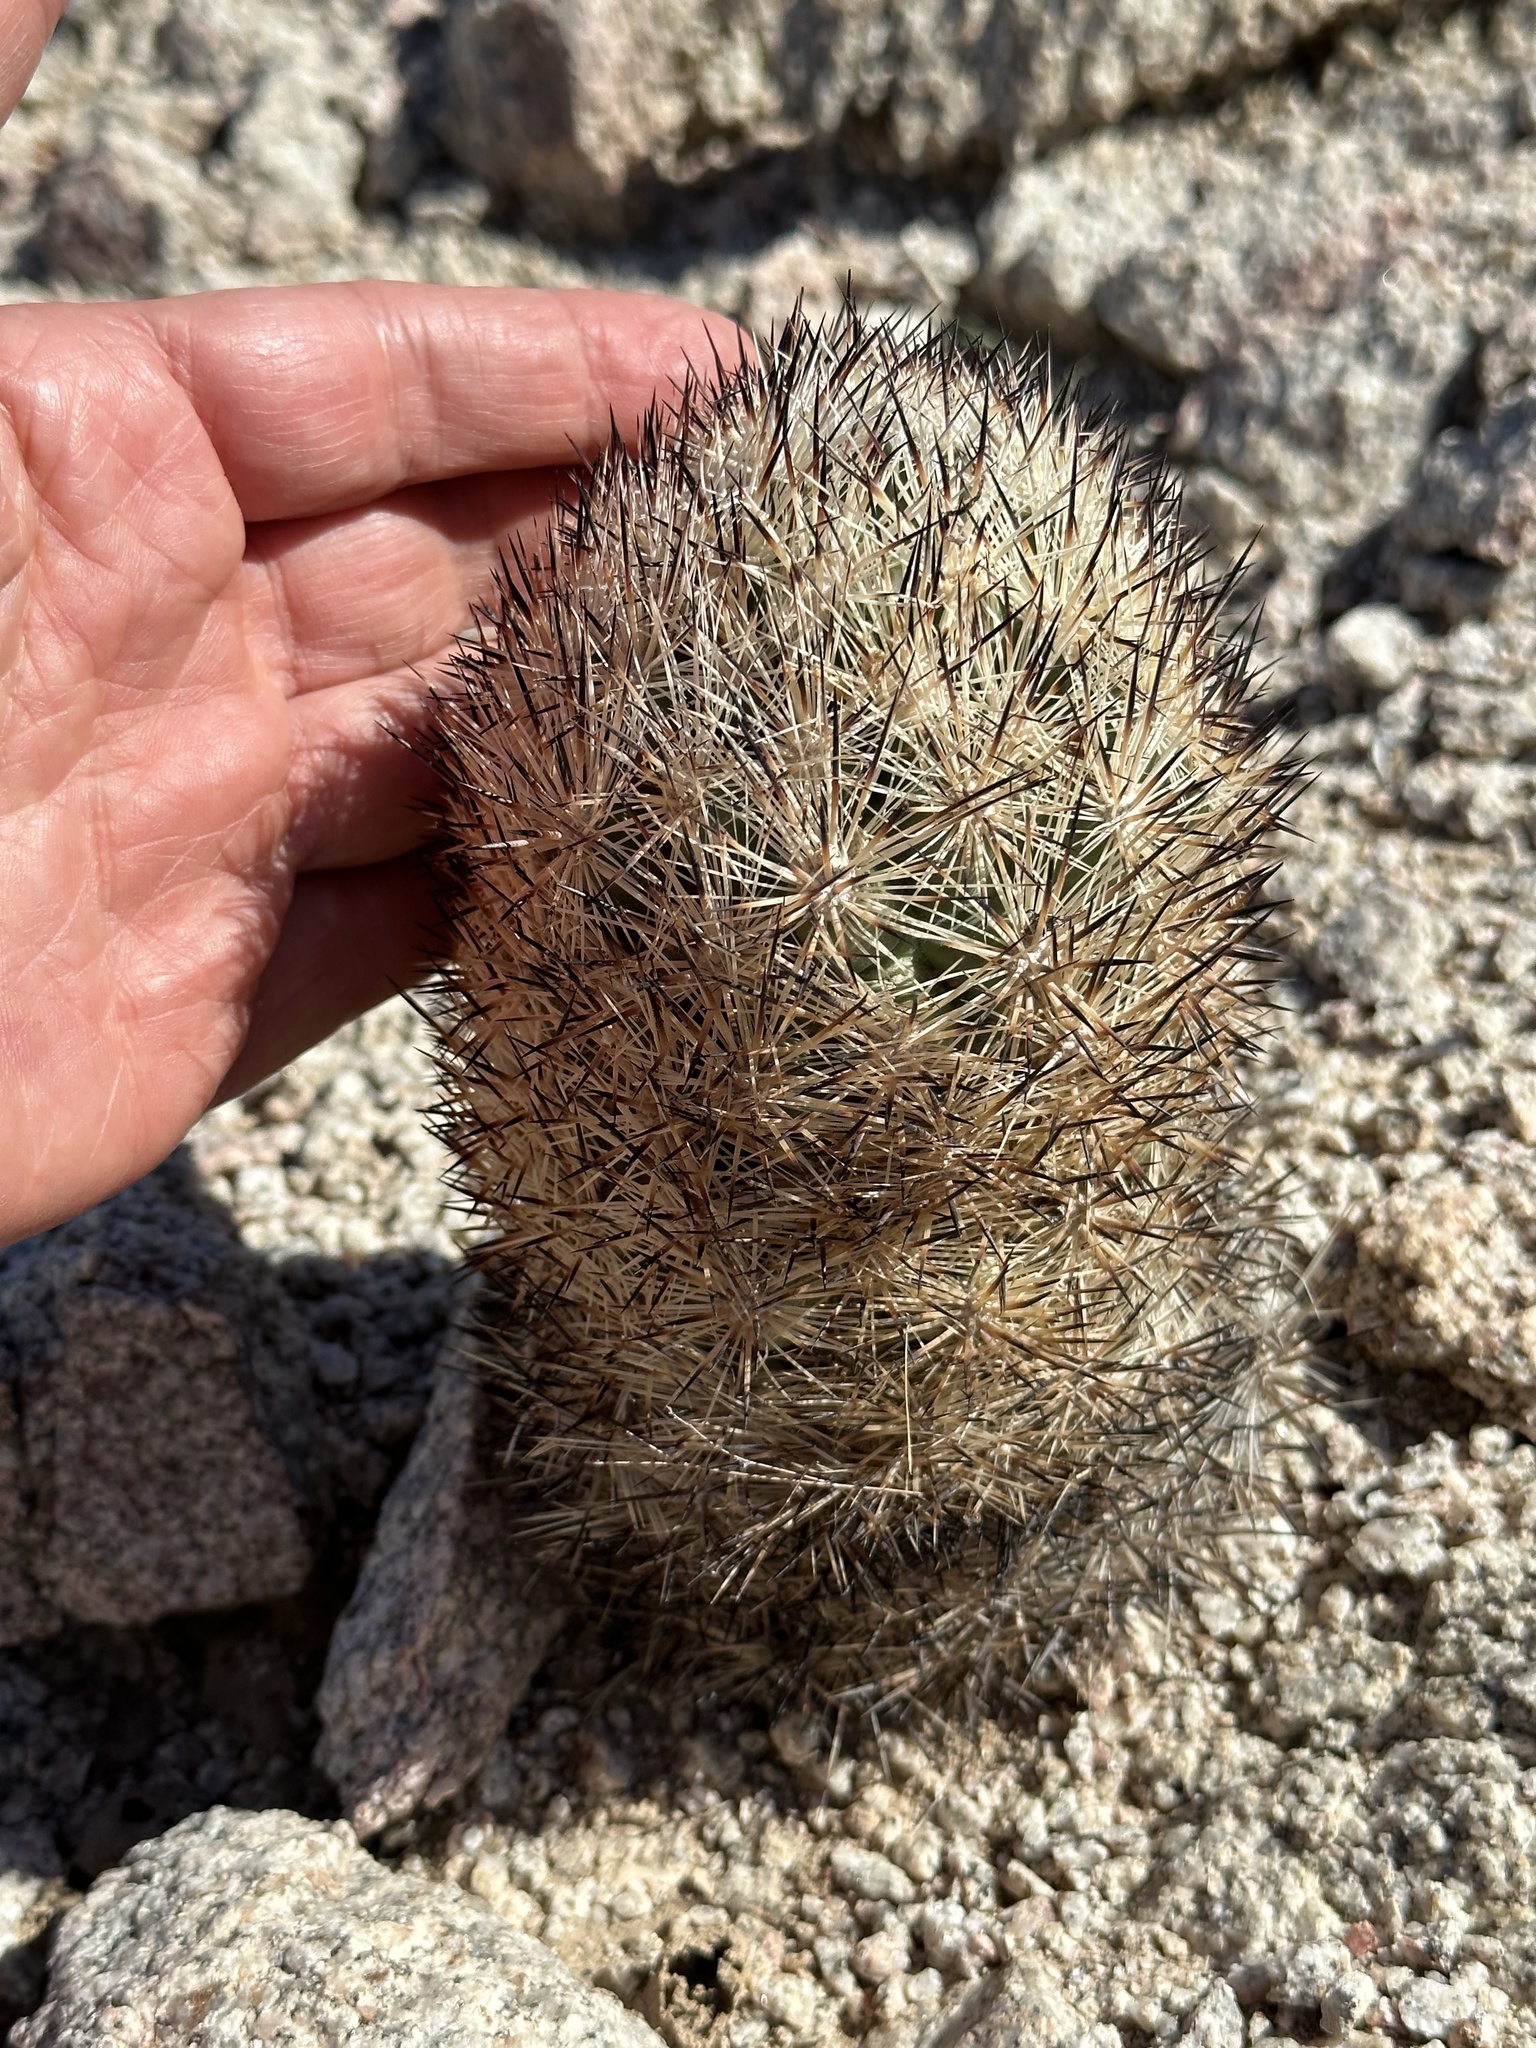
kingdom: Plantae
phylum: Tracheophyta
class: Magnoliopsida
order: Caryophyllales
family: Cactaceae
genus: Pelecyphora
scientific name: Pelecyphora alversonii
